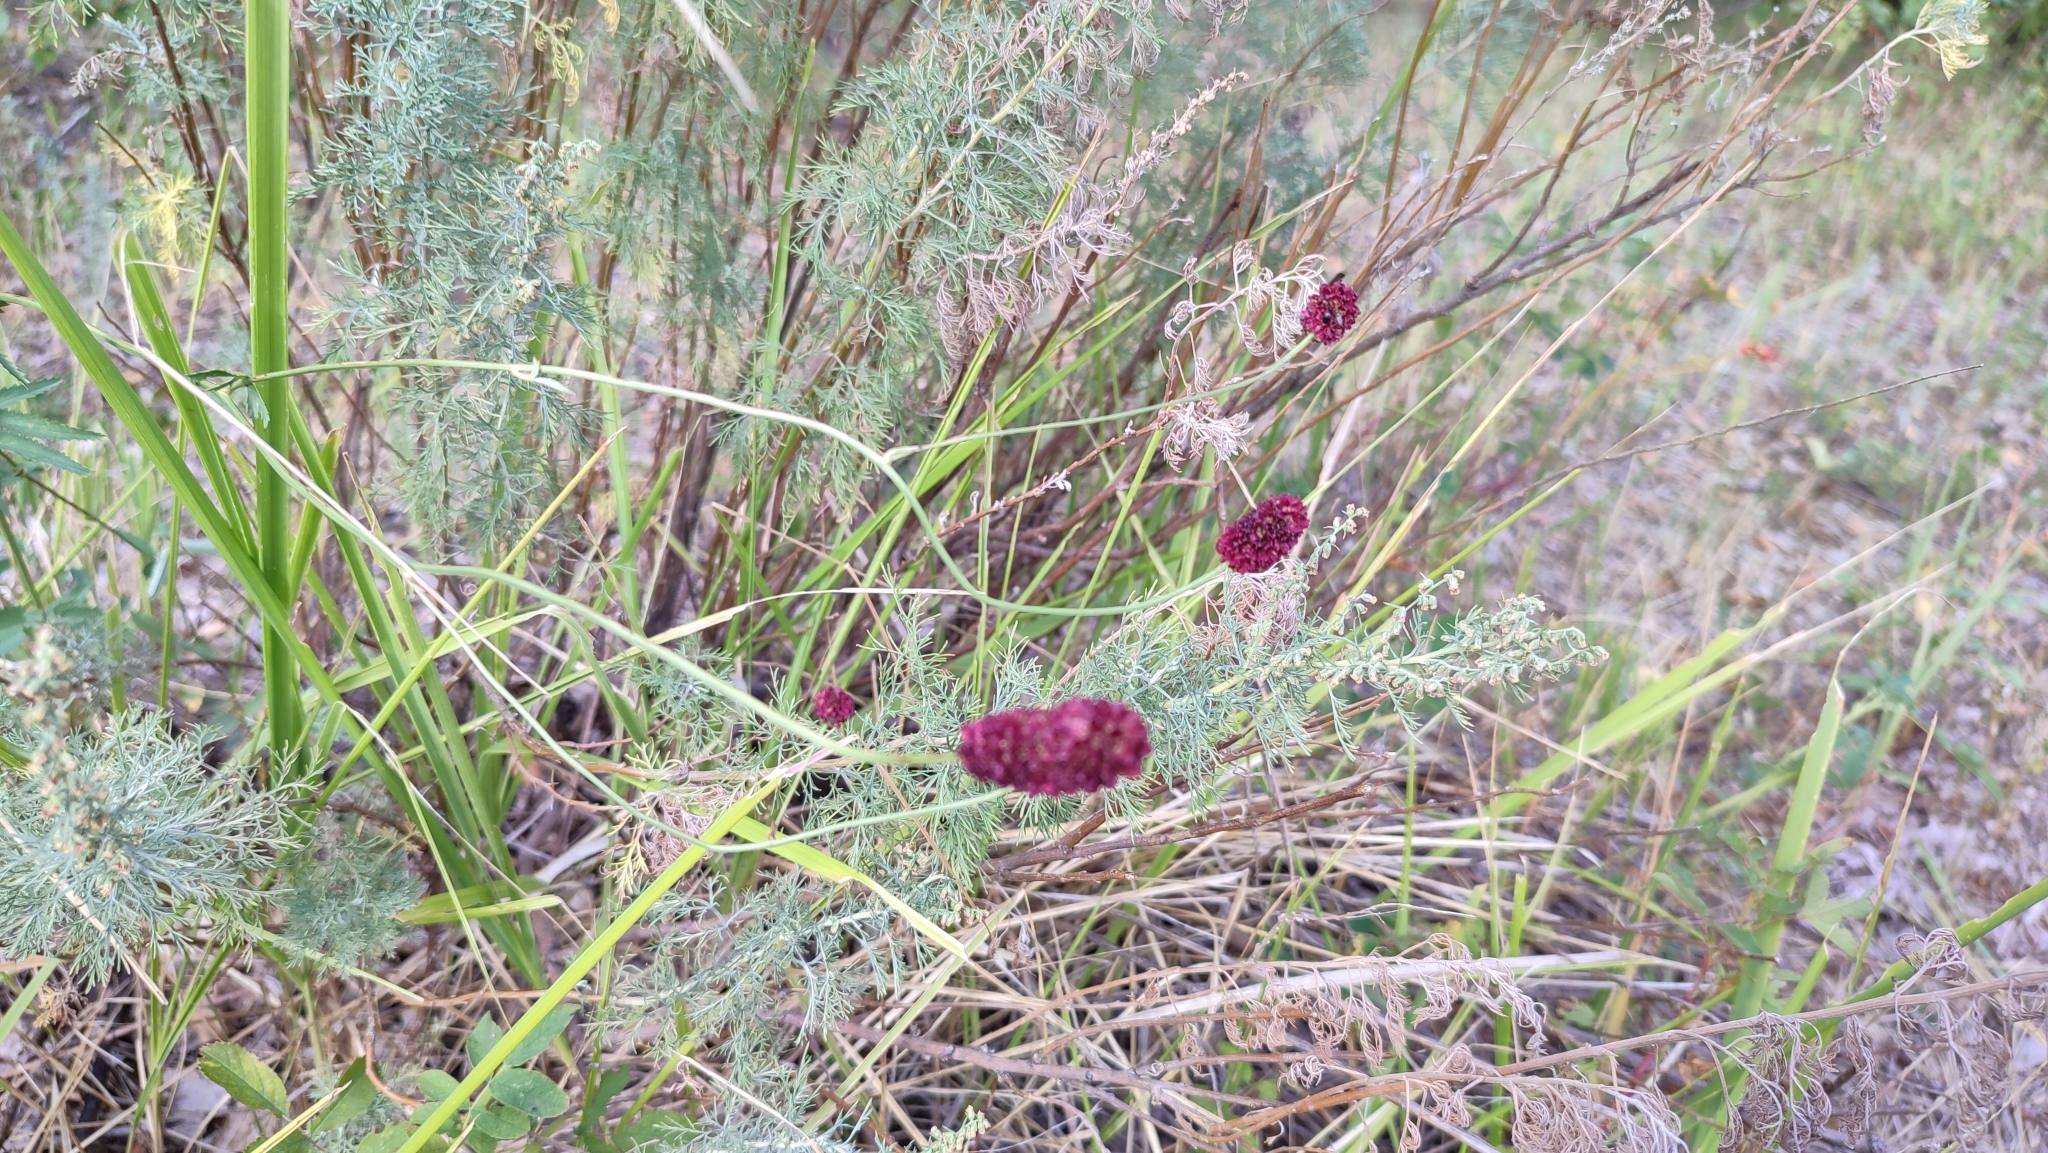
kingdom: Plantae
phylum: Tracheophyta
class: Magnoliopsida
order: Rosales
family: Rosaceae
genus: Sanguisorba
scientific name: Sanguisorba officinalis
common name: Great burnet
